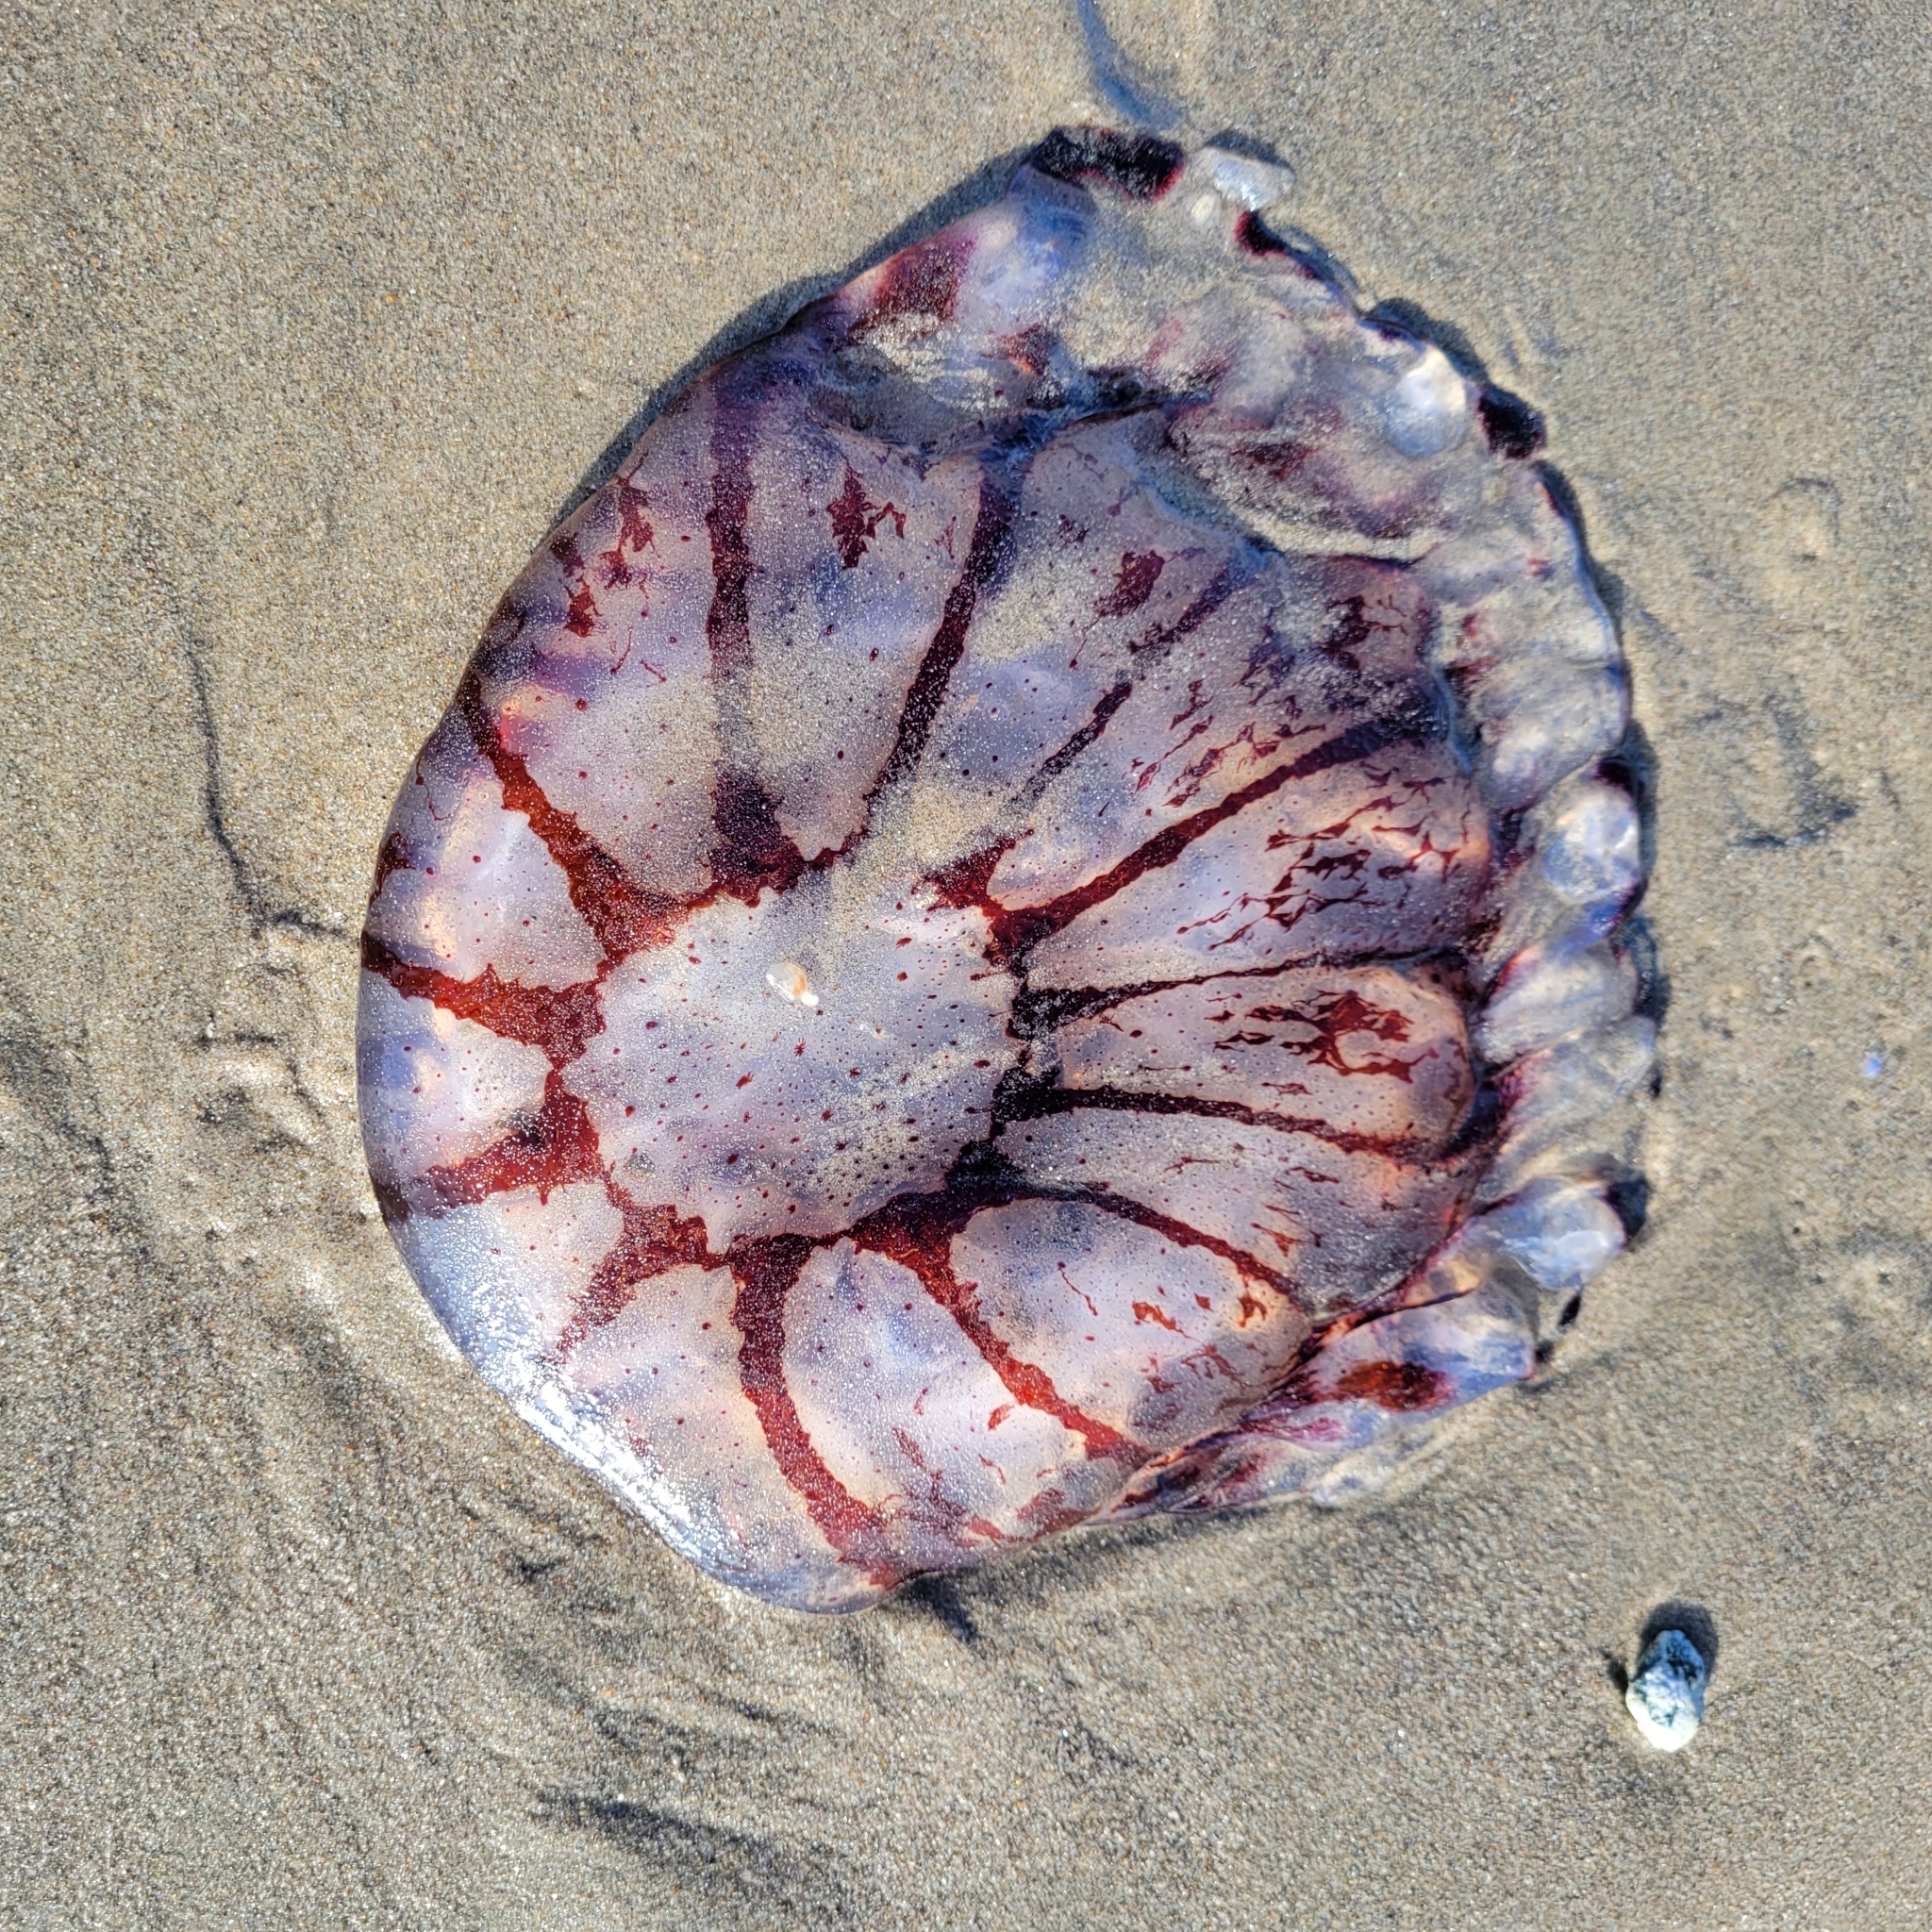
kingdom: Animalia
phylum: Cnidaria
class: Scyphozoa
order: Semaeostomeae
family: Pelagiidae
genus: Chrysaora
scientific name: Chrysaora colorata
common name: Purple-striped jellyfish
